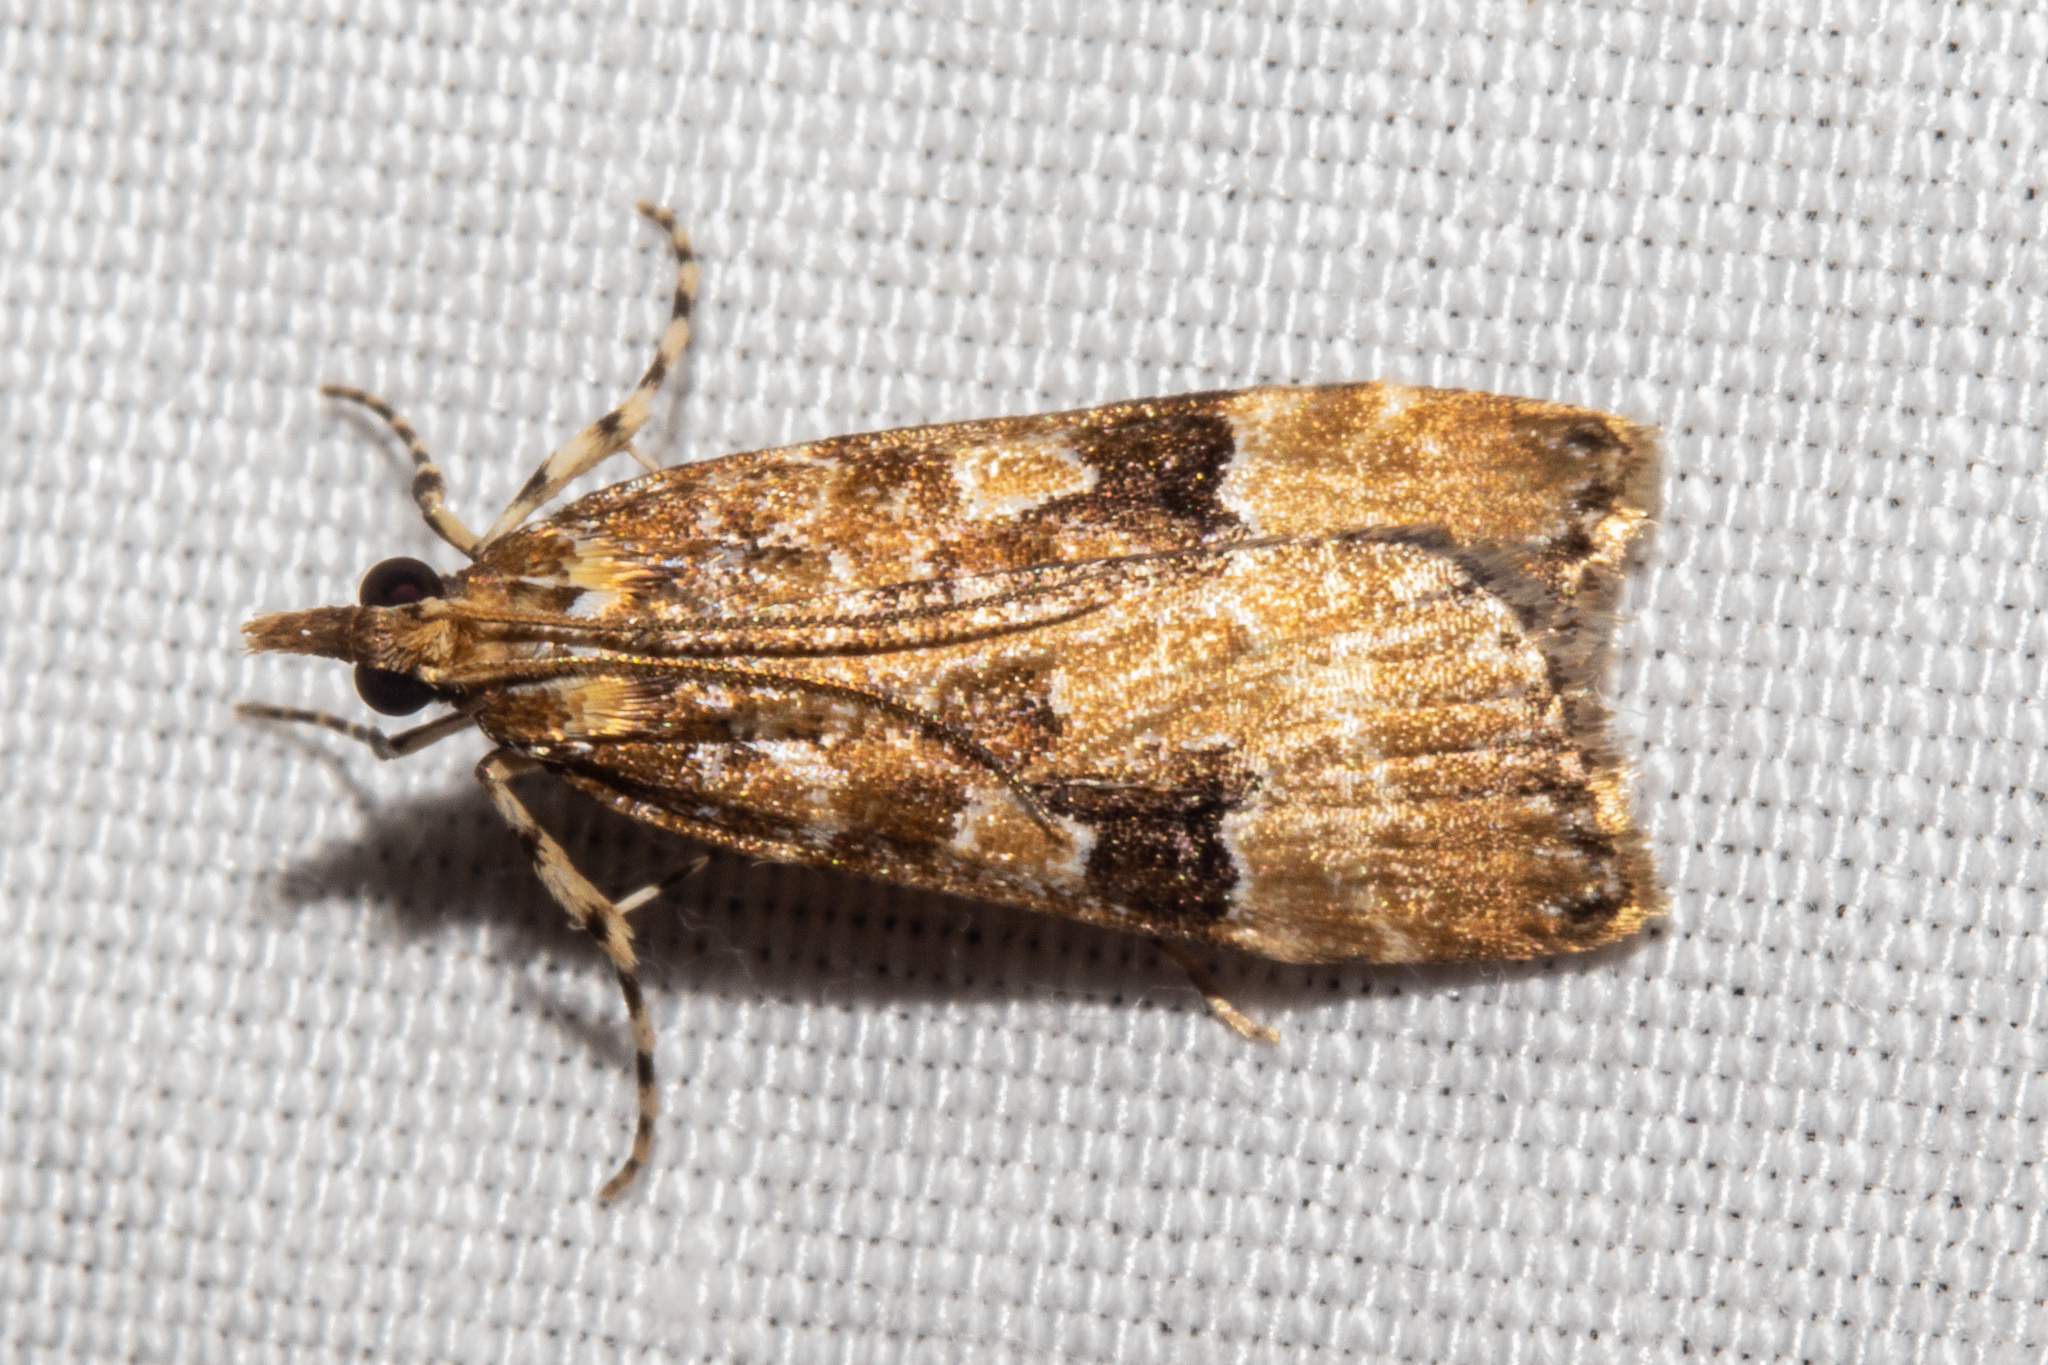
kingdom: Animalia
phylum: Arthropoda
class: Insecta
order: Lepidoptera
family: Crambidae
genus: Scoparia
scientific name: Scoparia ustimacula
